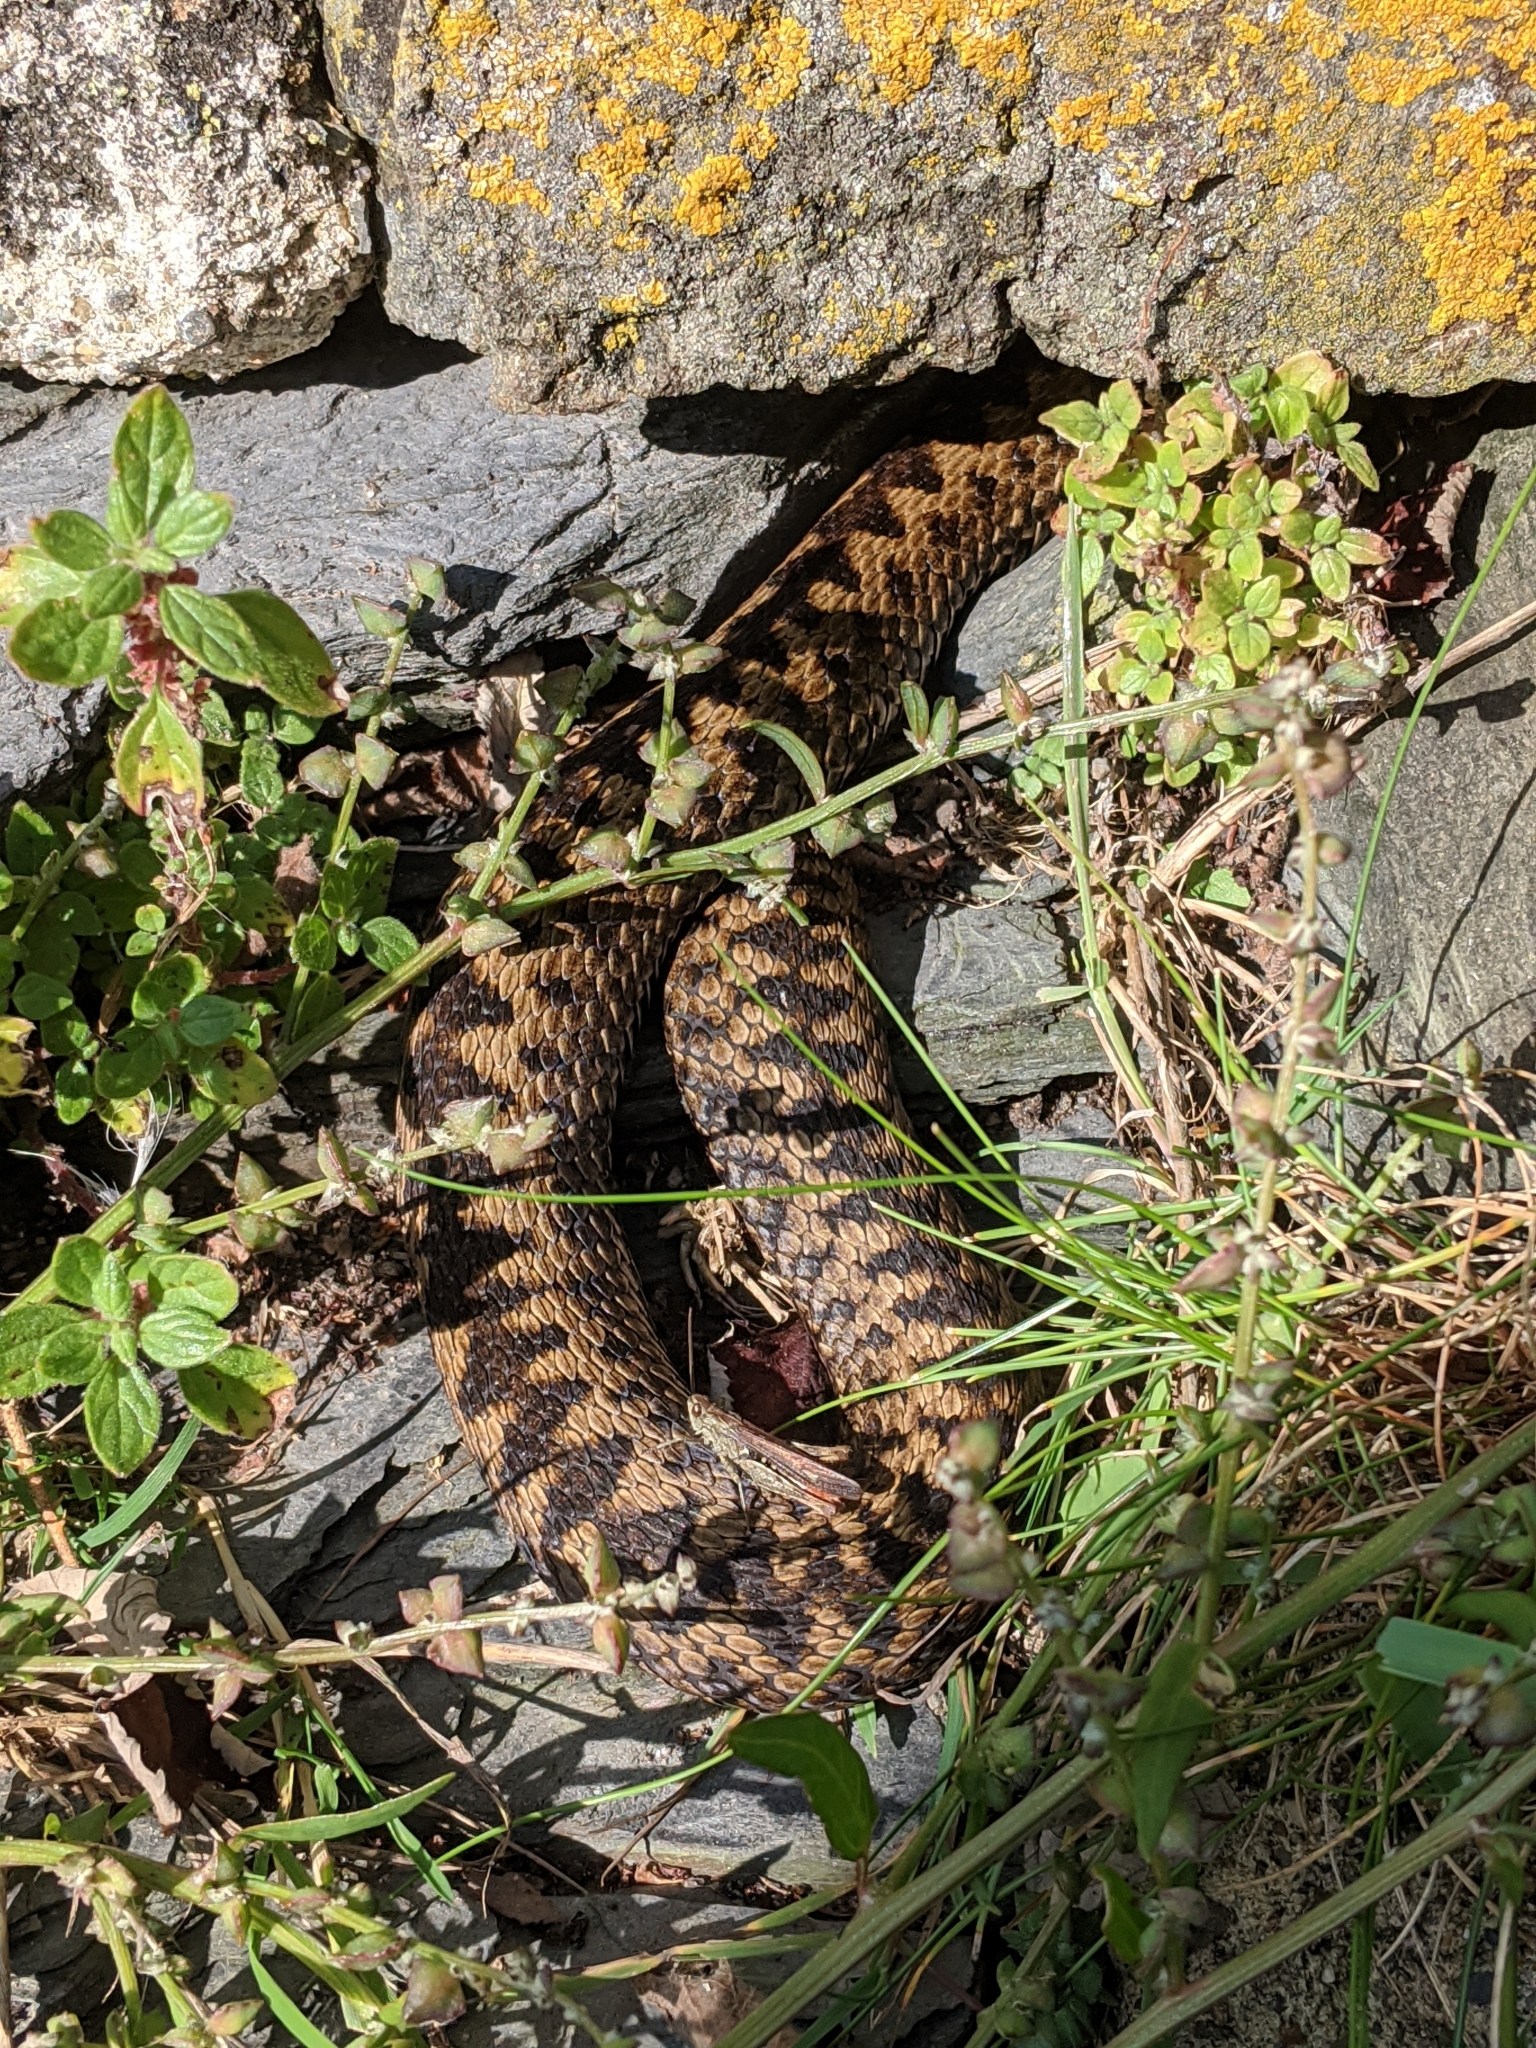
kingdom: Animalia
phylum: Chordata
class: Squamata
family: Viperidae
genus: Vipera
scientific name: Vipera berus
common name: Adder
